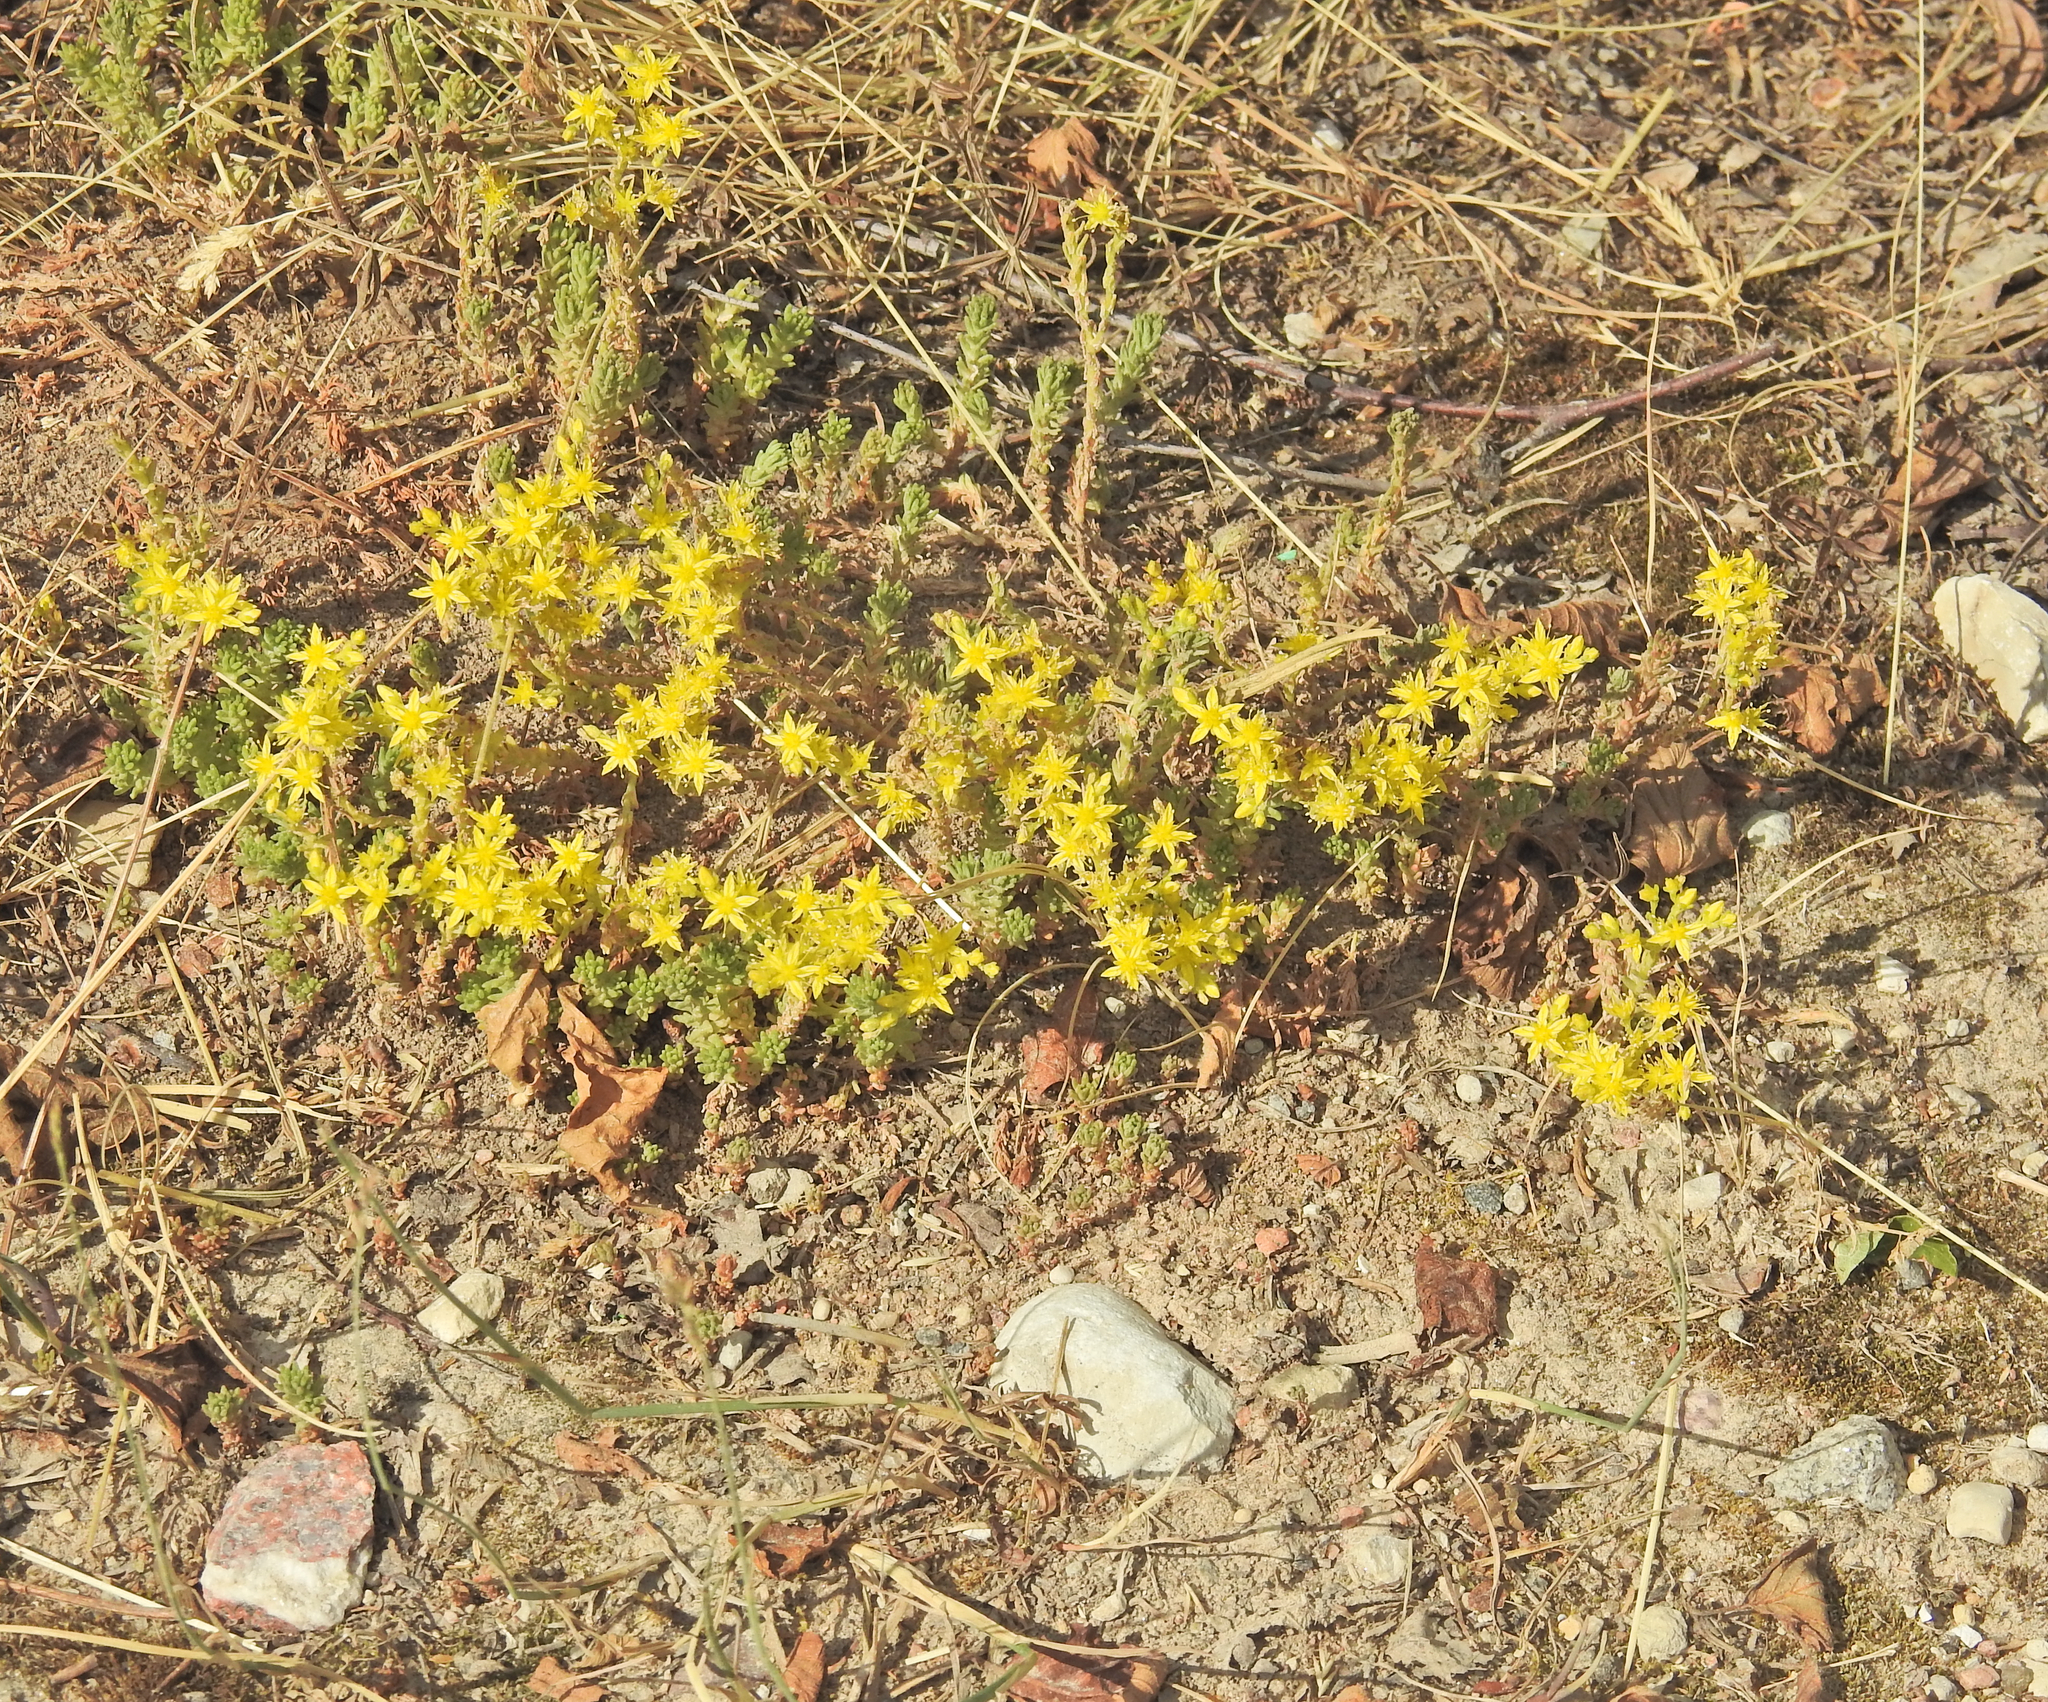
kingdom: Plantae
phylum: Tracheophyta
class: Magnoliopsida
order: Saxifragales
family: Crassulaceae
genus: Sedum
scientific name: Sedum sexangulare
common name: Tasteless stonecrop
